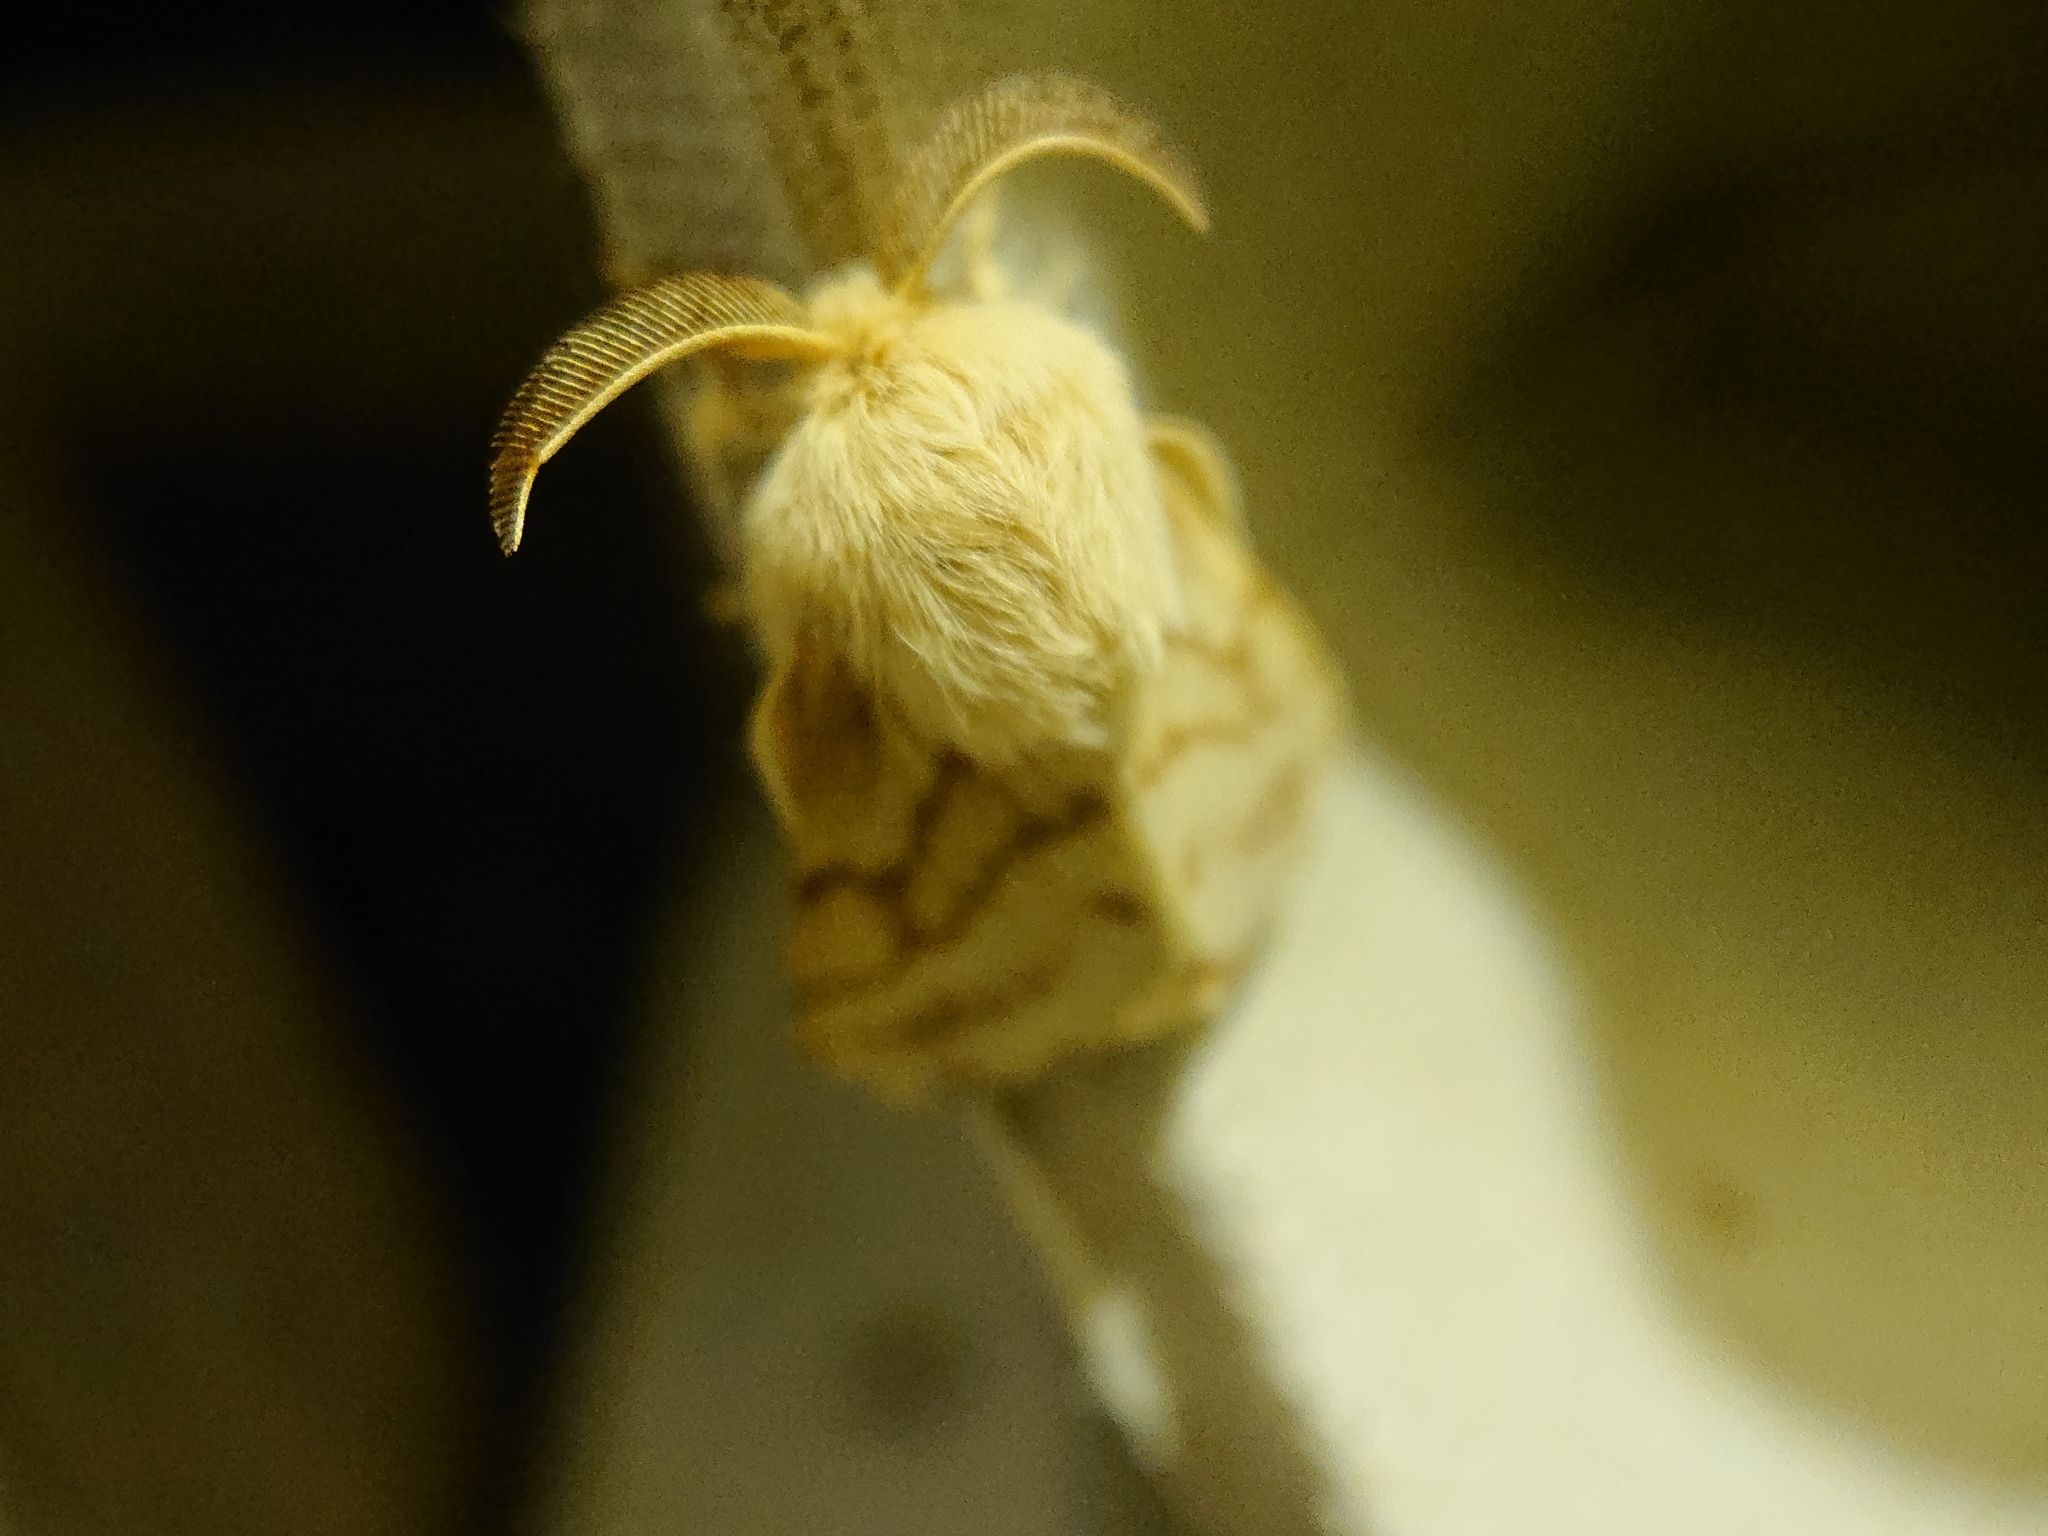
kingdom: Animalia
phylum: Arthropoda
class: Insecta
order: Lepidoptera
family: Lasiocampidae
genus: Malacosoma
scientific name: Malacosoma castrense
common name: Ground lackey
